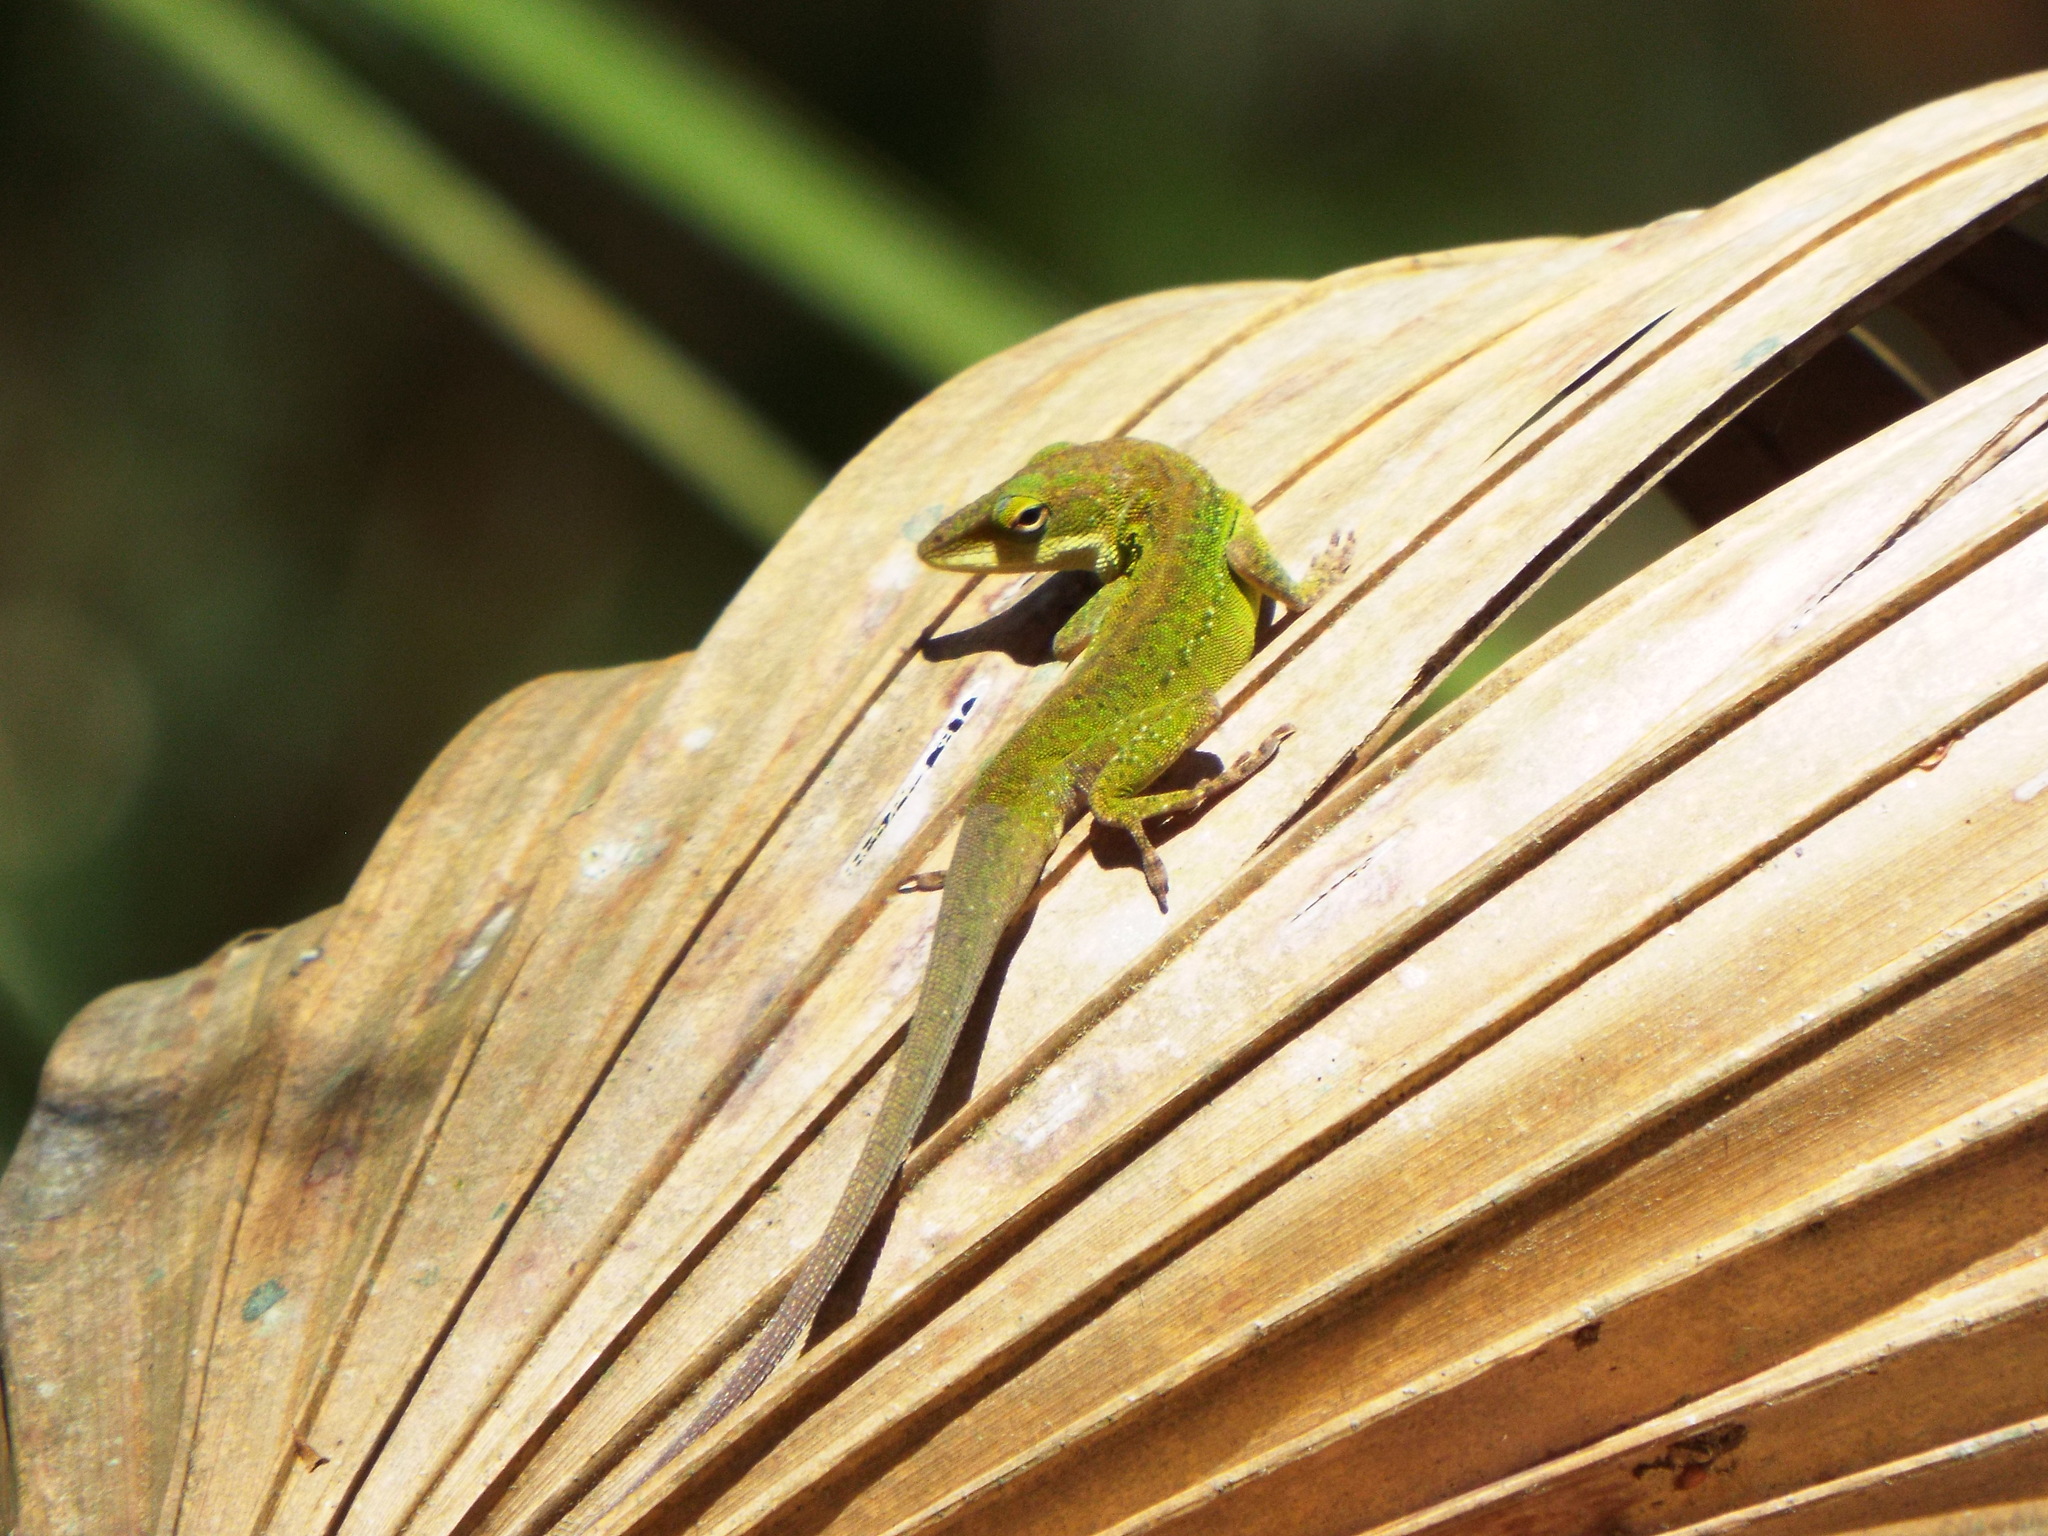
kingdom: Animalia
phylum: Chordata
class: Squamata
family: Dactyloidae
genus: Anolis
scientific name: Anolis carolinensis
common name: Green anole
